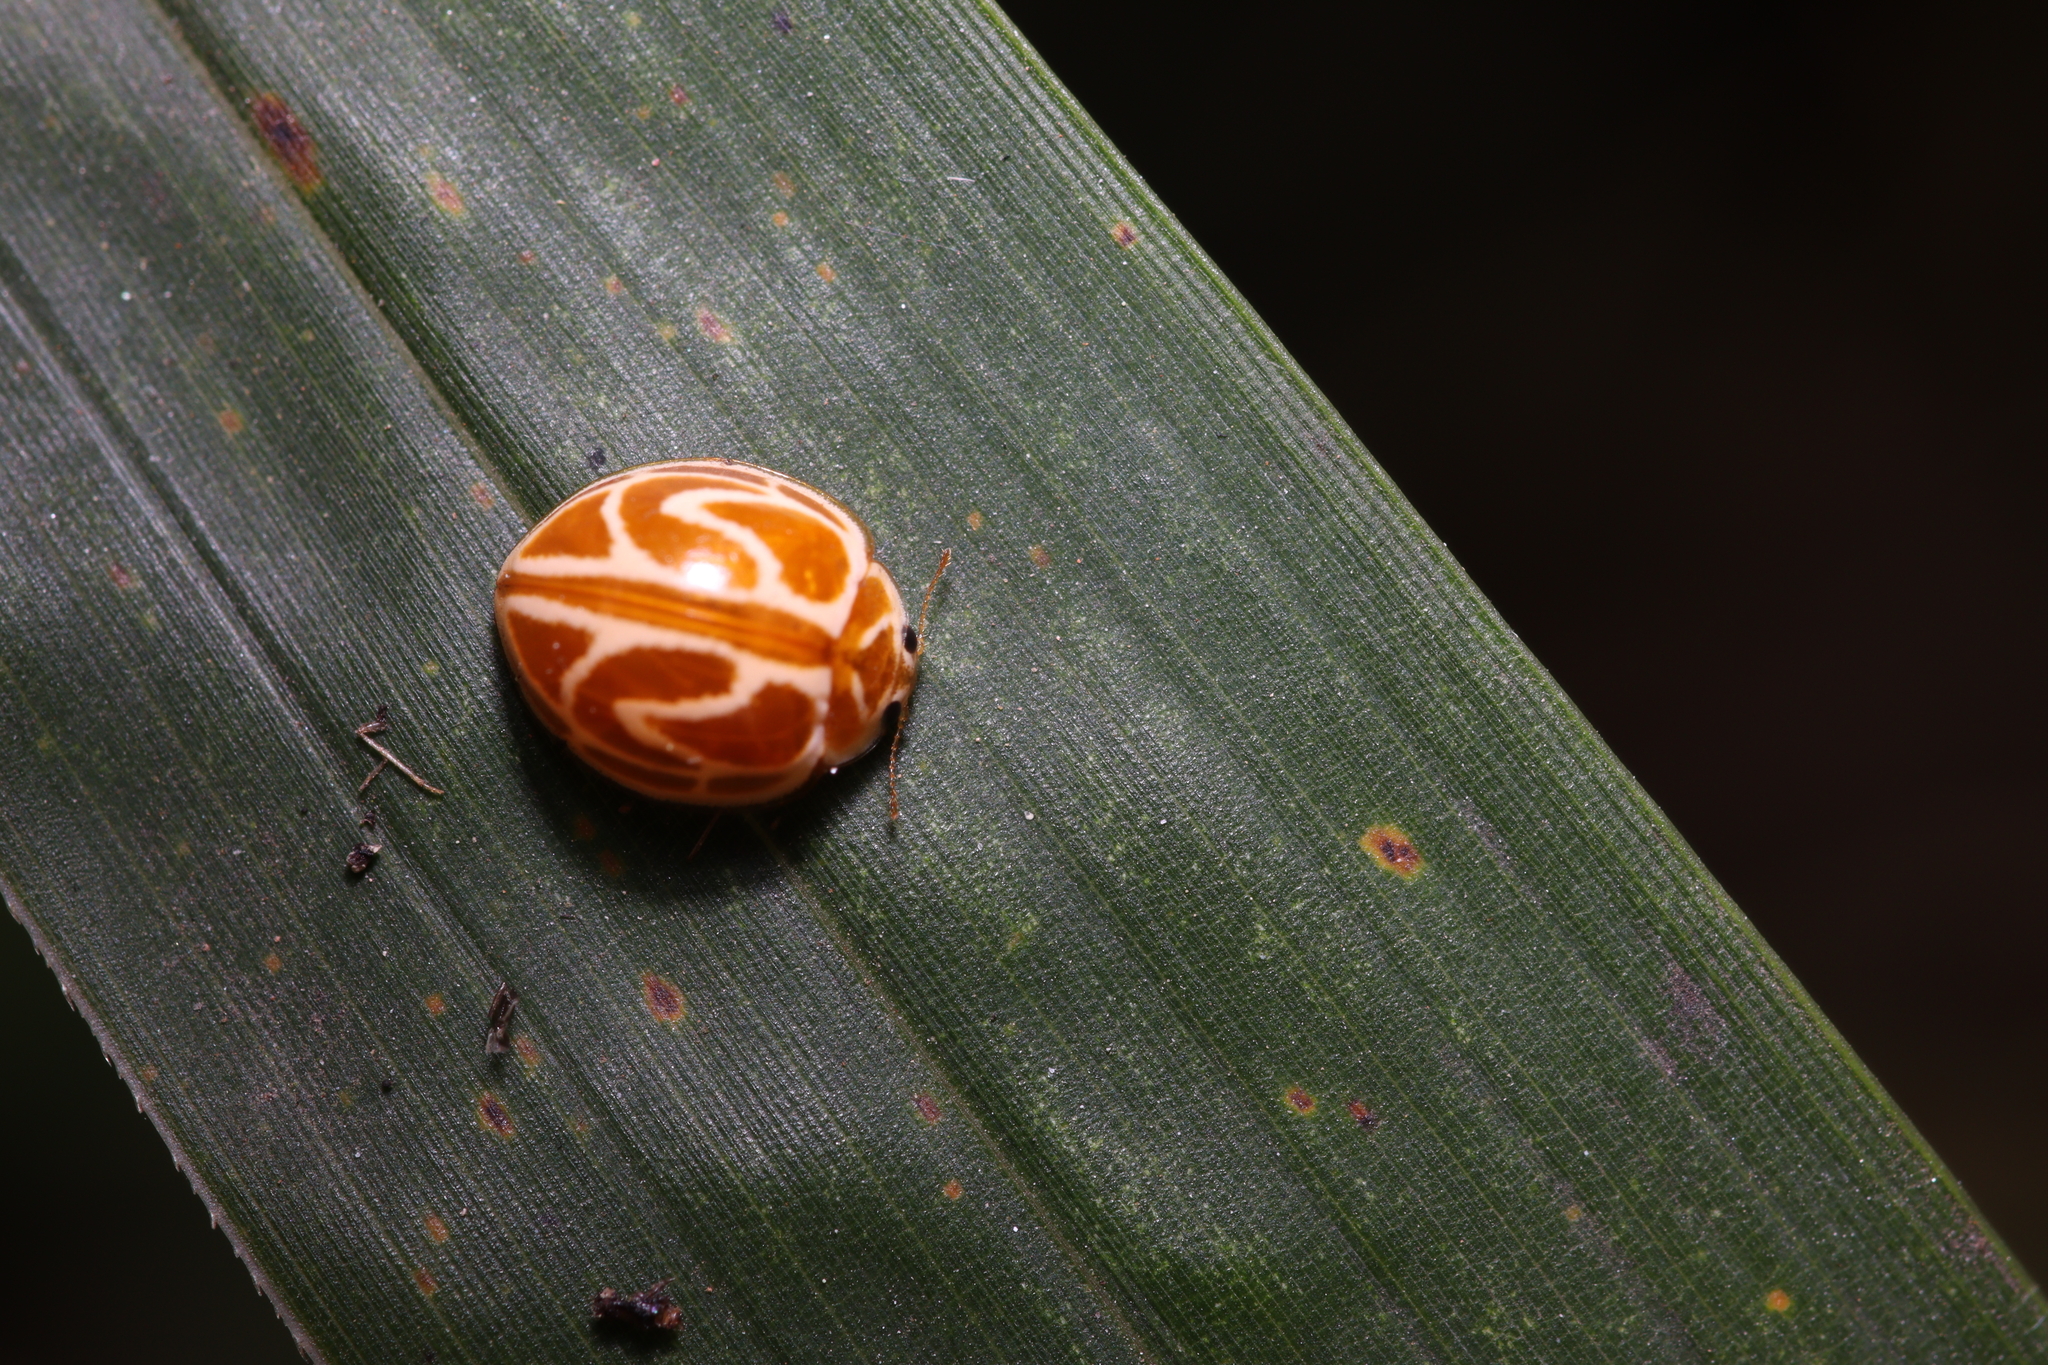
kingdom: Animalia
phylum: Arthropoda
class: Insecta
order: Coleoptera
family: Coccinellidae
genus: Neocalvia
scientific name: Neocalvia fulgurata
